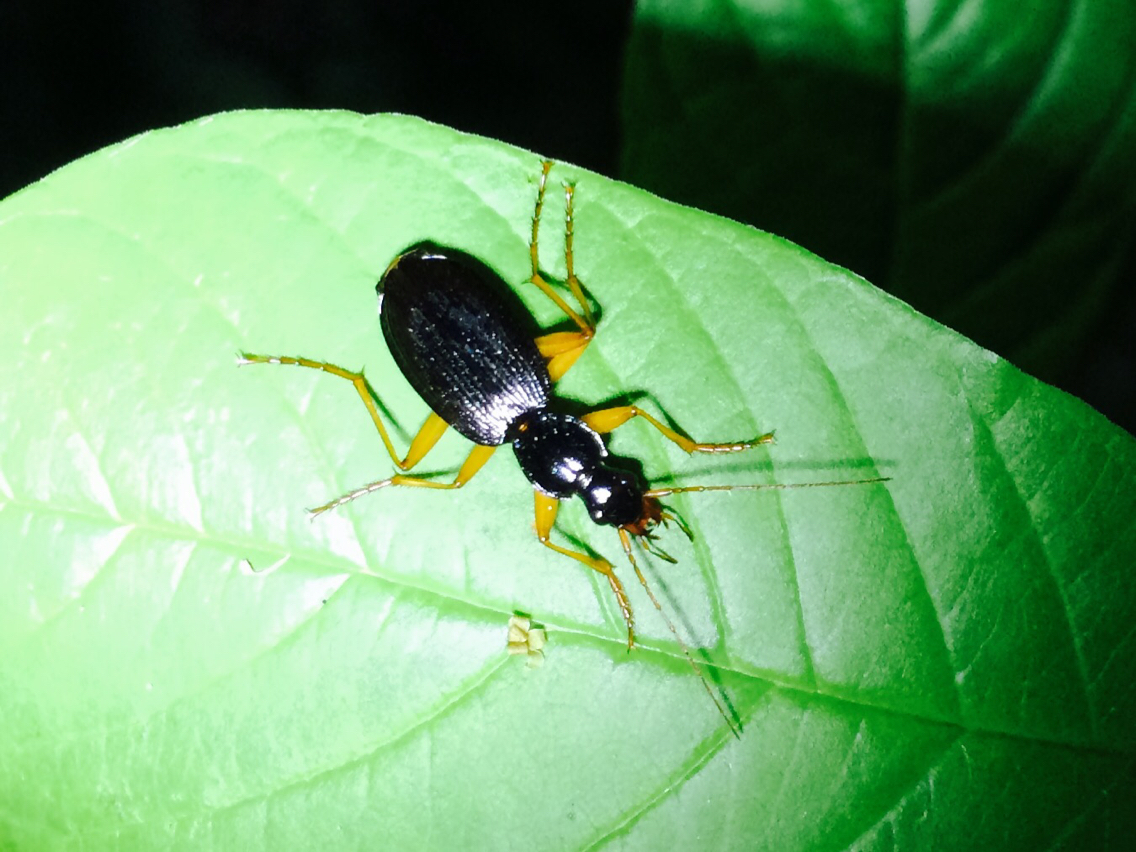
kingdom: Animalia
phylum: Arthropoda
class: Insecta
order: Coleoptera
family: Carabidae
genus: Platynus
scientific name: Platynus hypolithos
